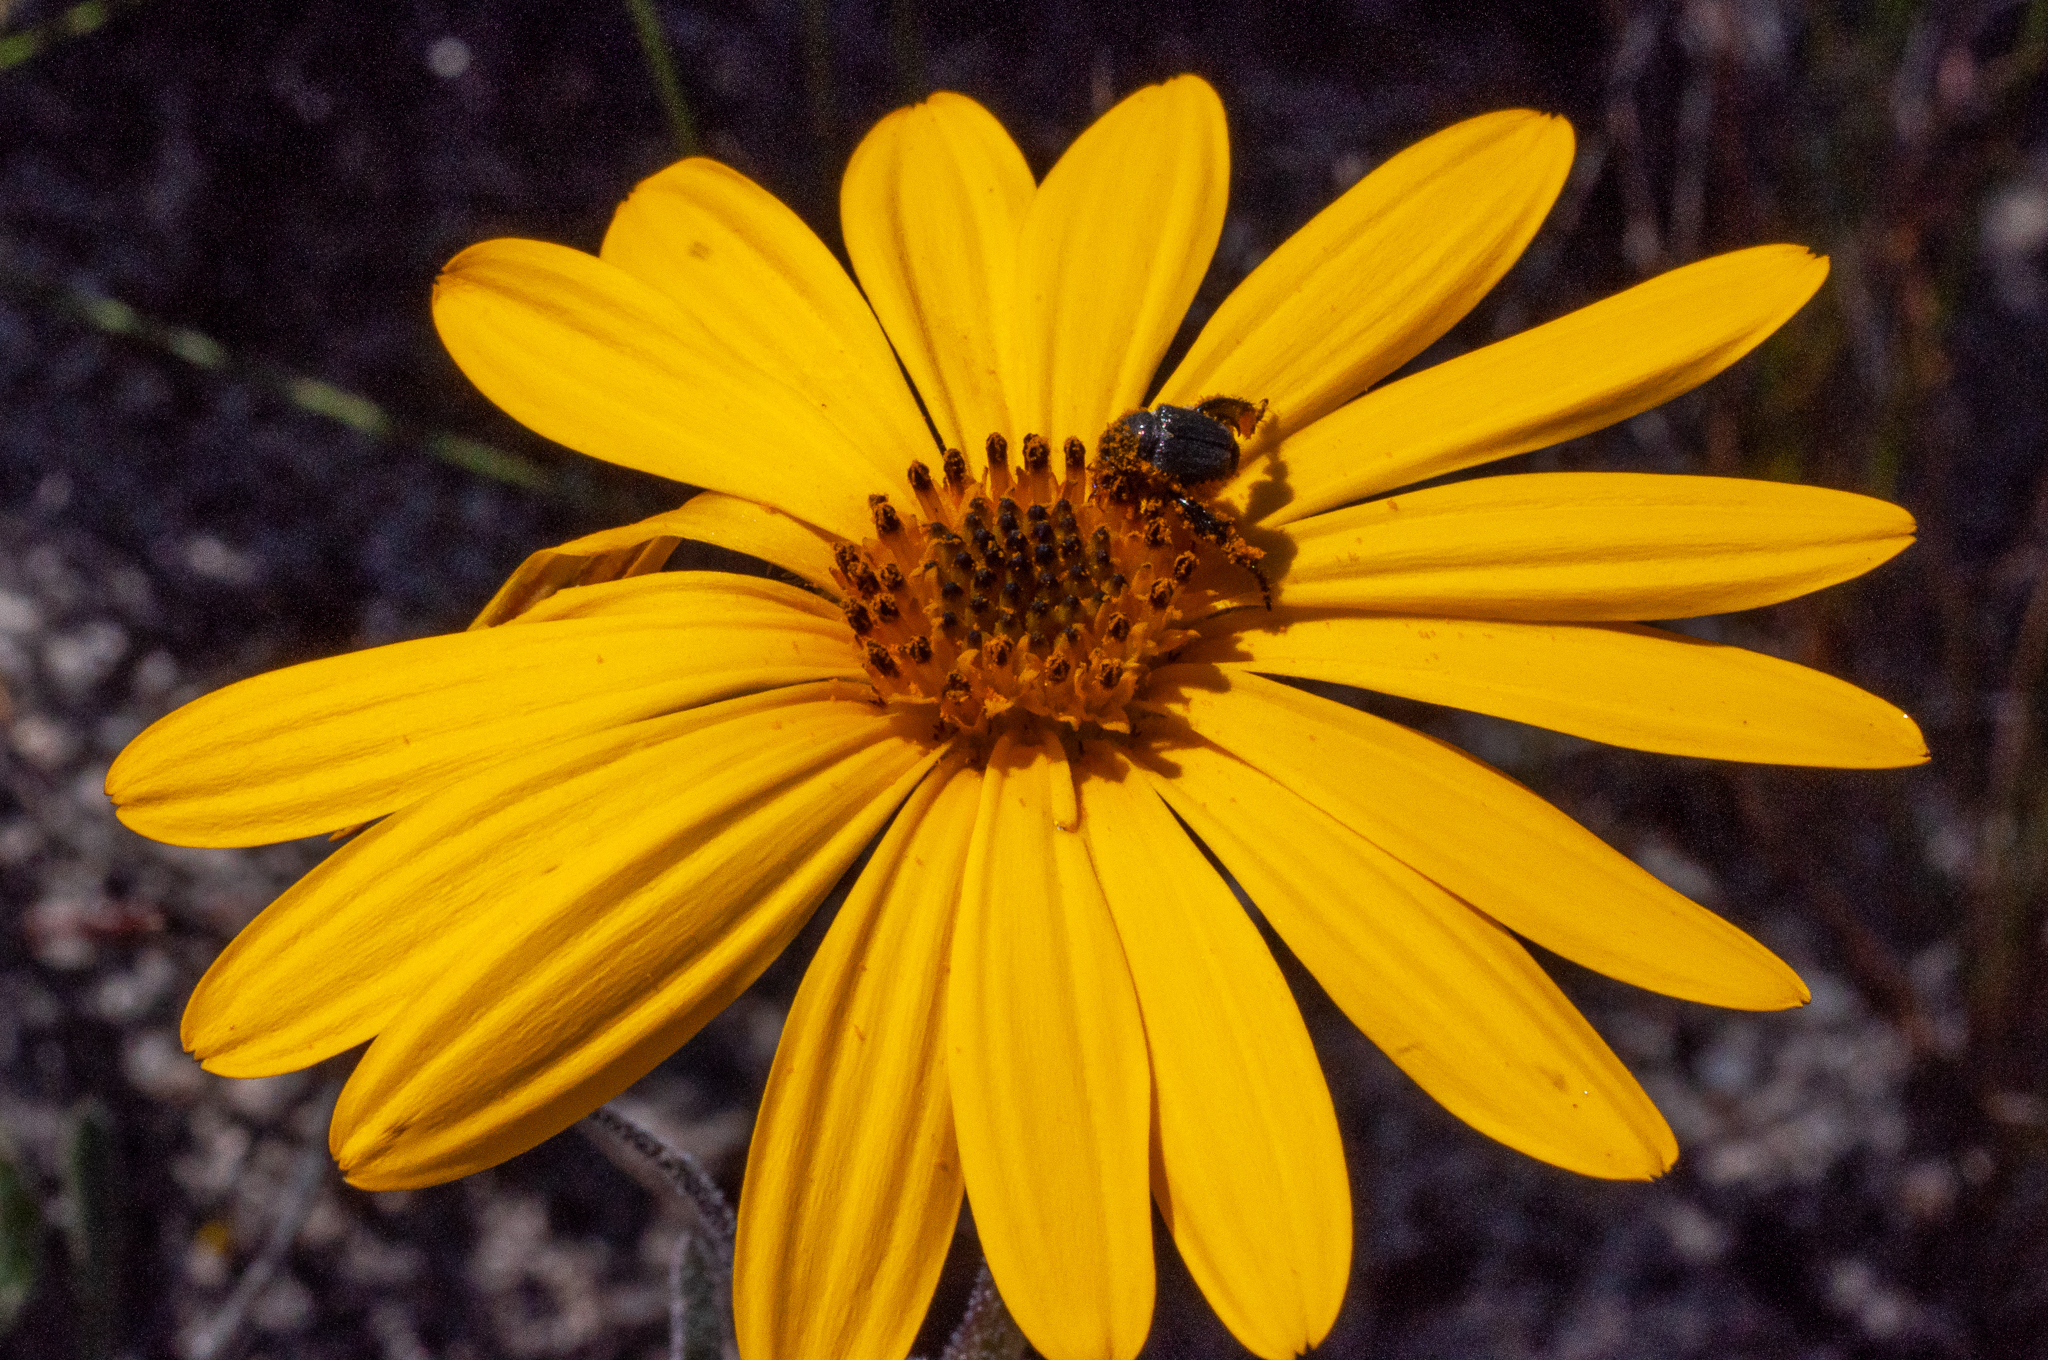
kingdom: Plantae
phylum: Tracheophyta
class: Magnoliopsida
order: Asterales
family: Asteraceae
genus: Dimorphotheca
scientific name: Dimorphotheca nudicaulis
